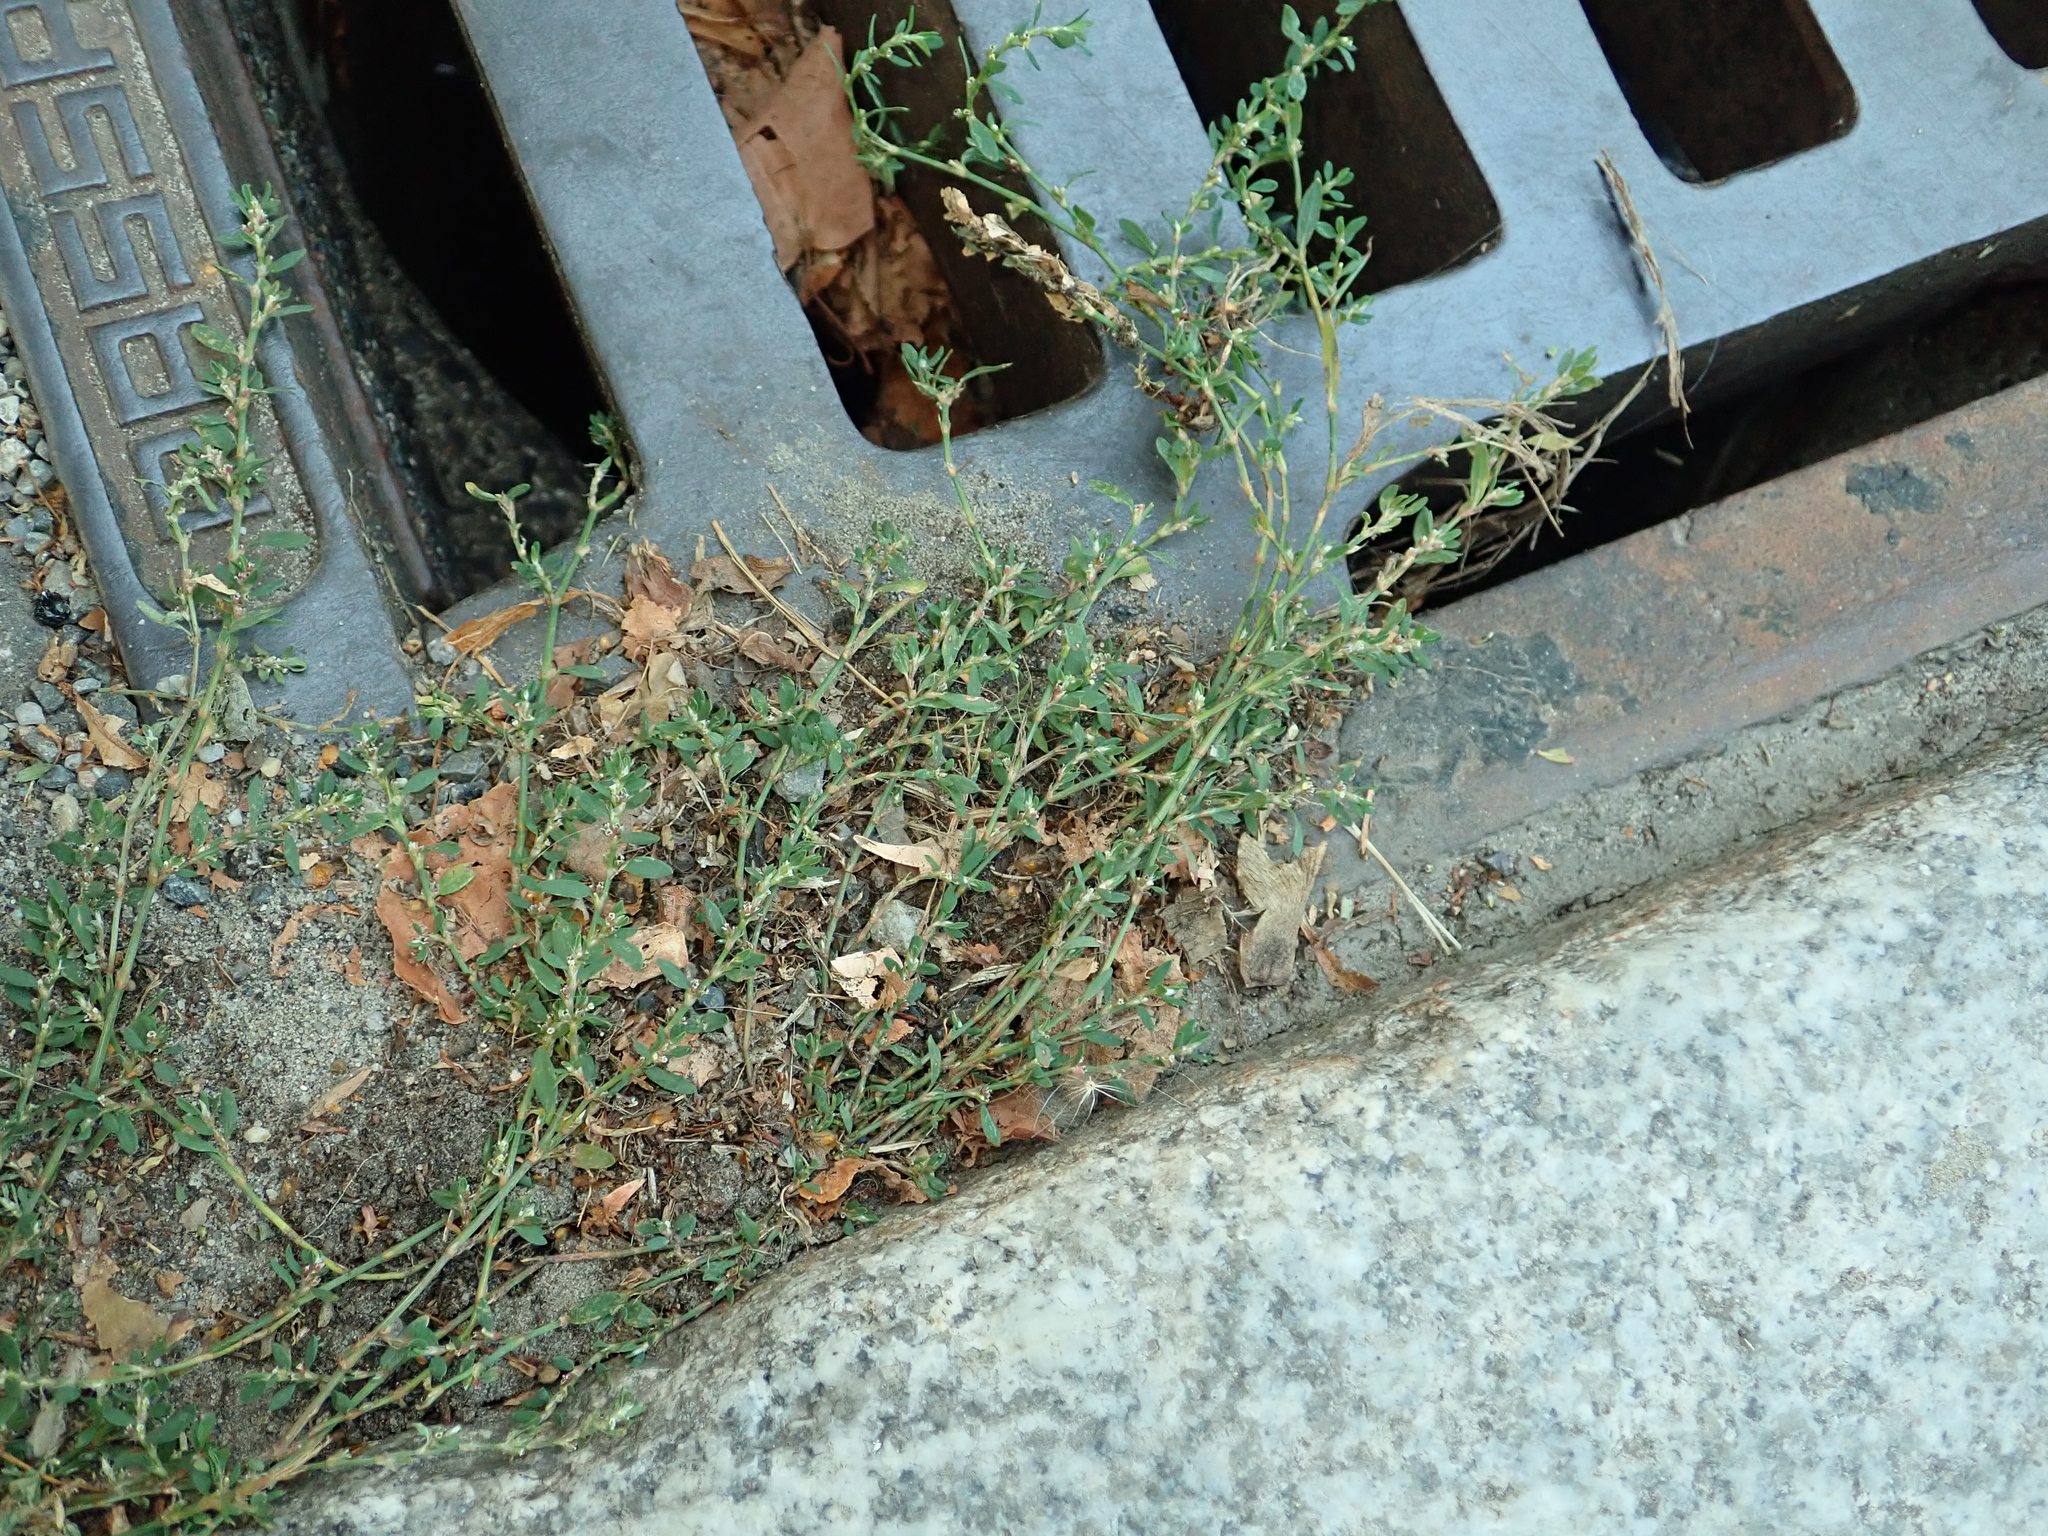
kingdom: Plantae
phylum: Tracheophyta
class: Magnoliopsida
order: Caryophyllales
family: Polygonaceae
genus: Polygonum
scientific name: Polygonum aviculare
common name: Prostrate knotweed
